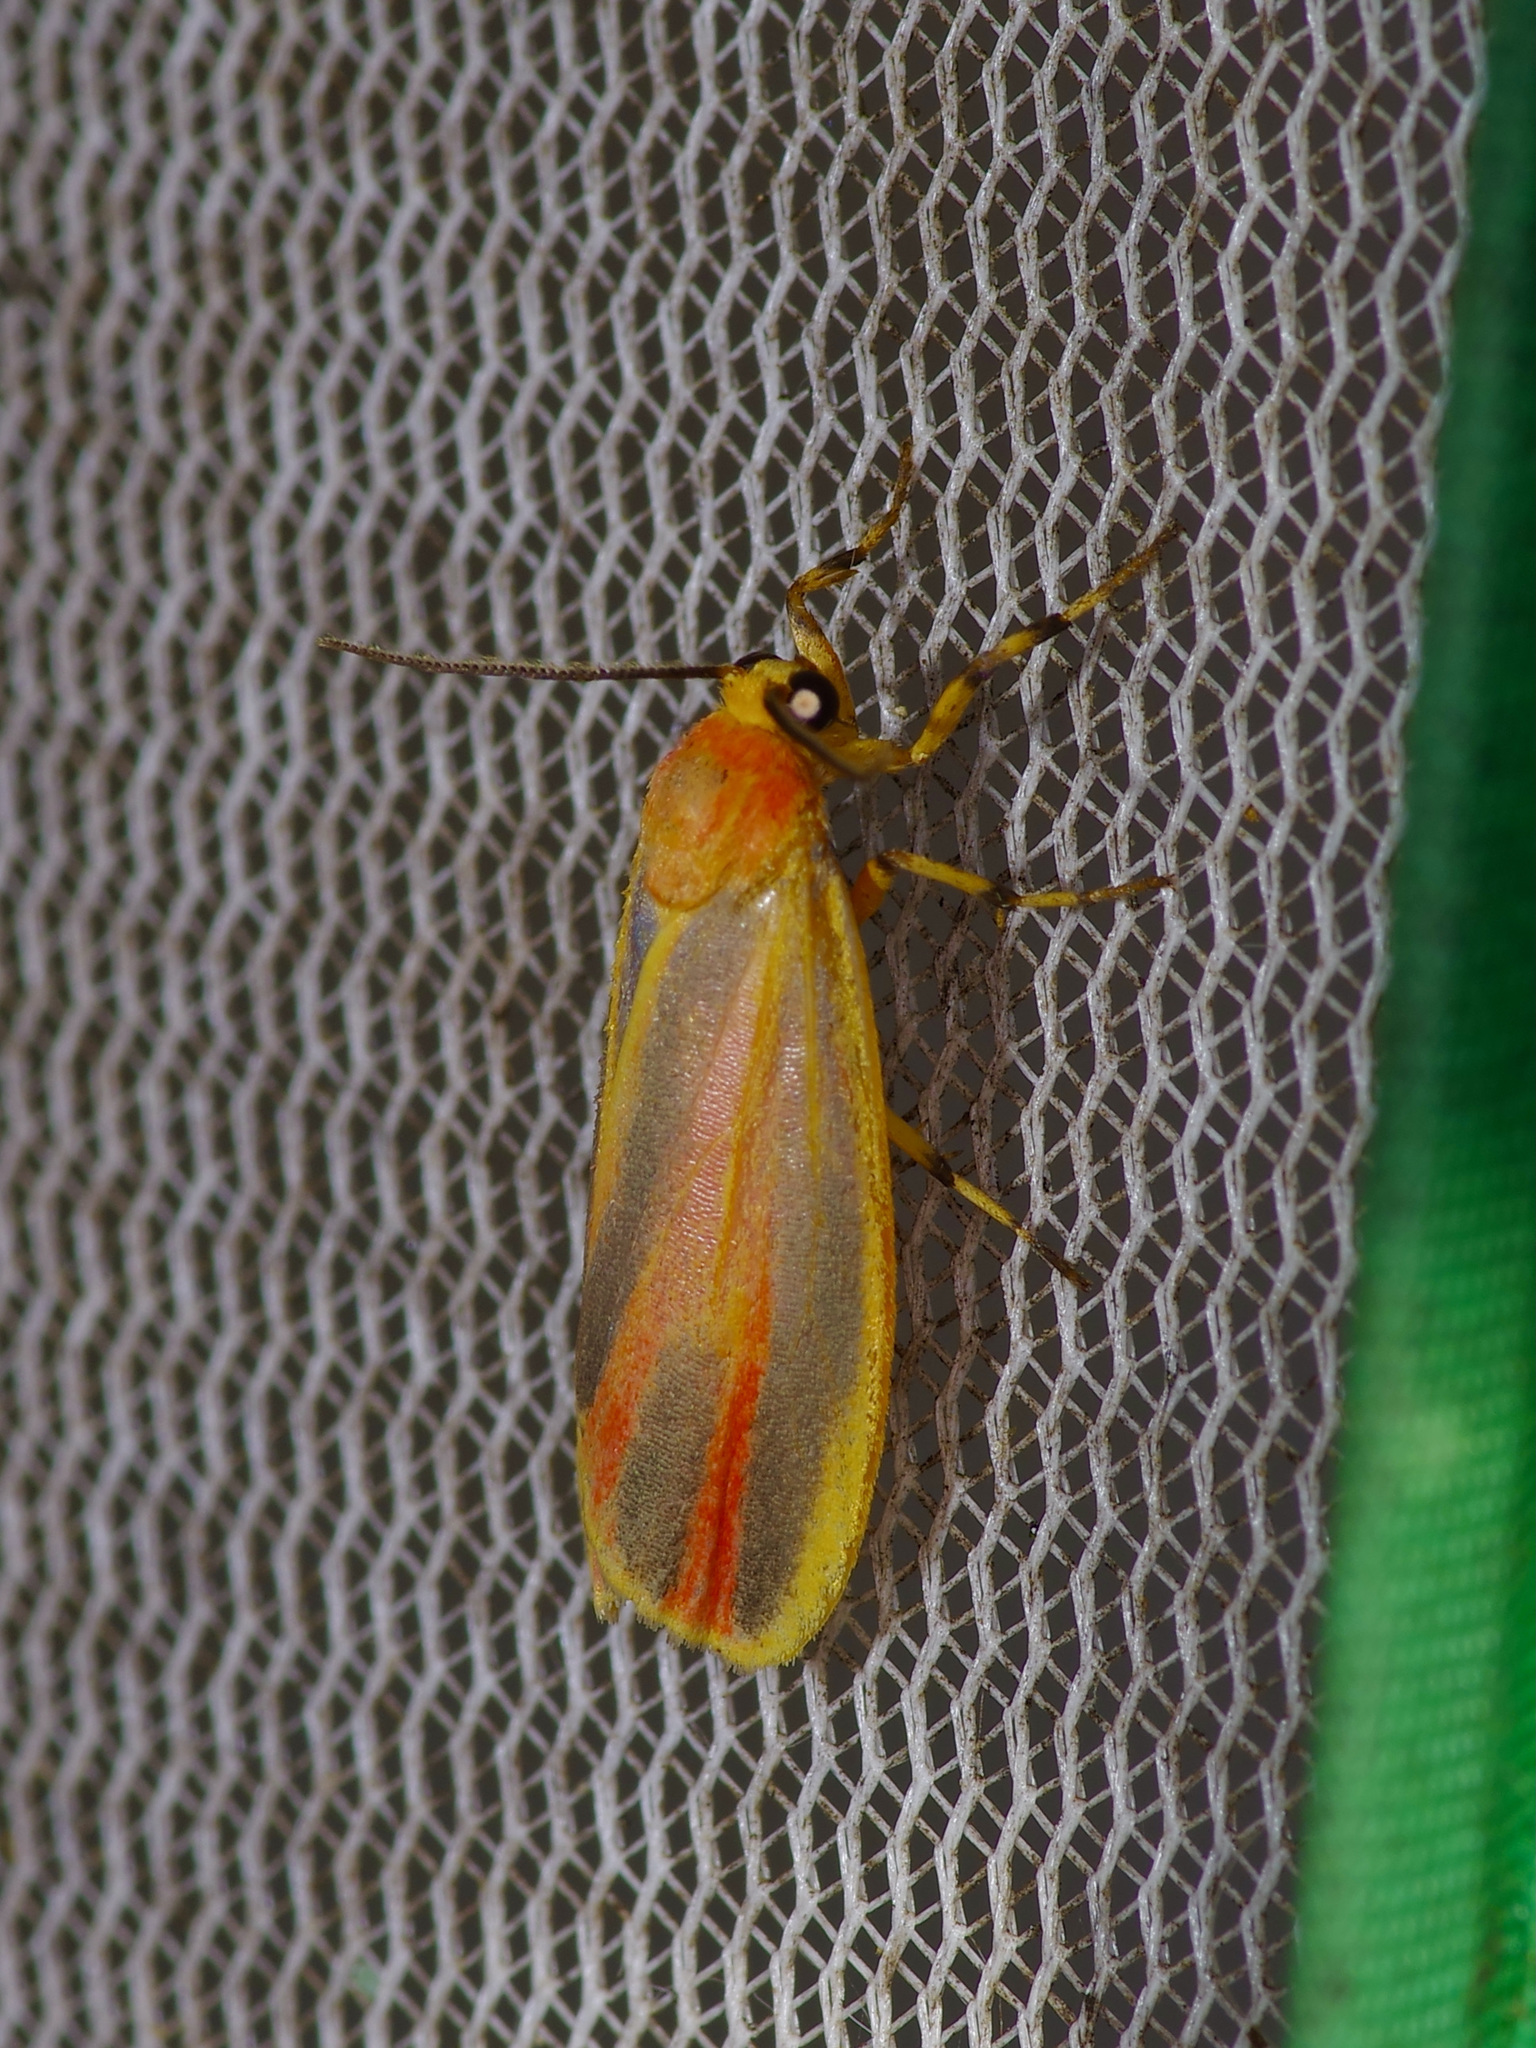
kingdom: Animalia
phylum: Arthropoda
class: Insecta
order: Lepidoptera
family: Erebidae
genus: Hypoprepia
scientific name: Hypoprepia fucosa
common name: Painted lichen moth
